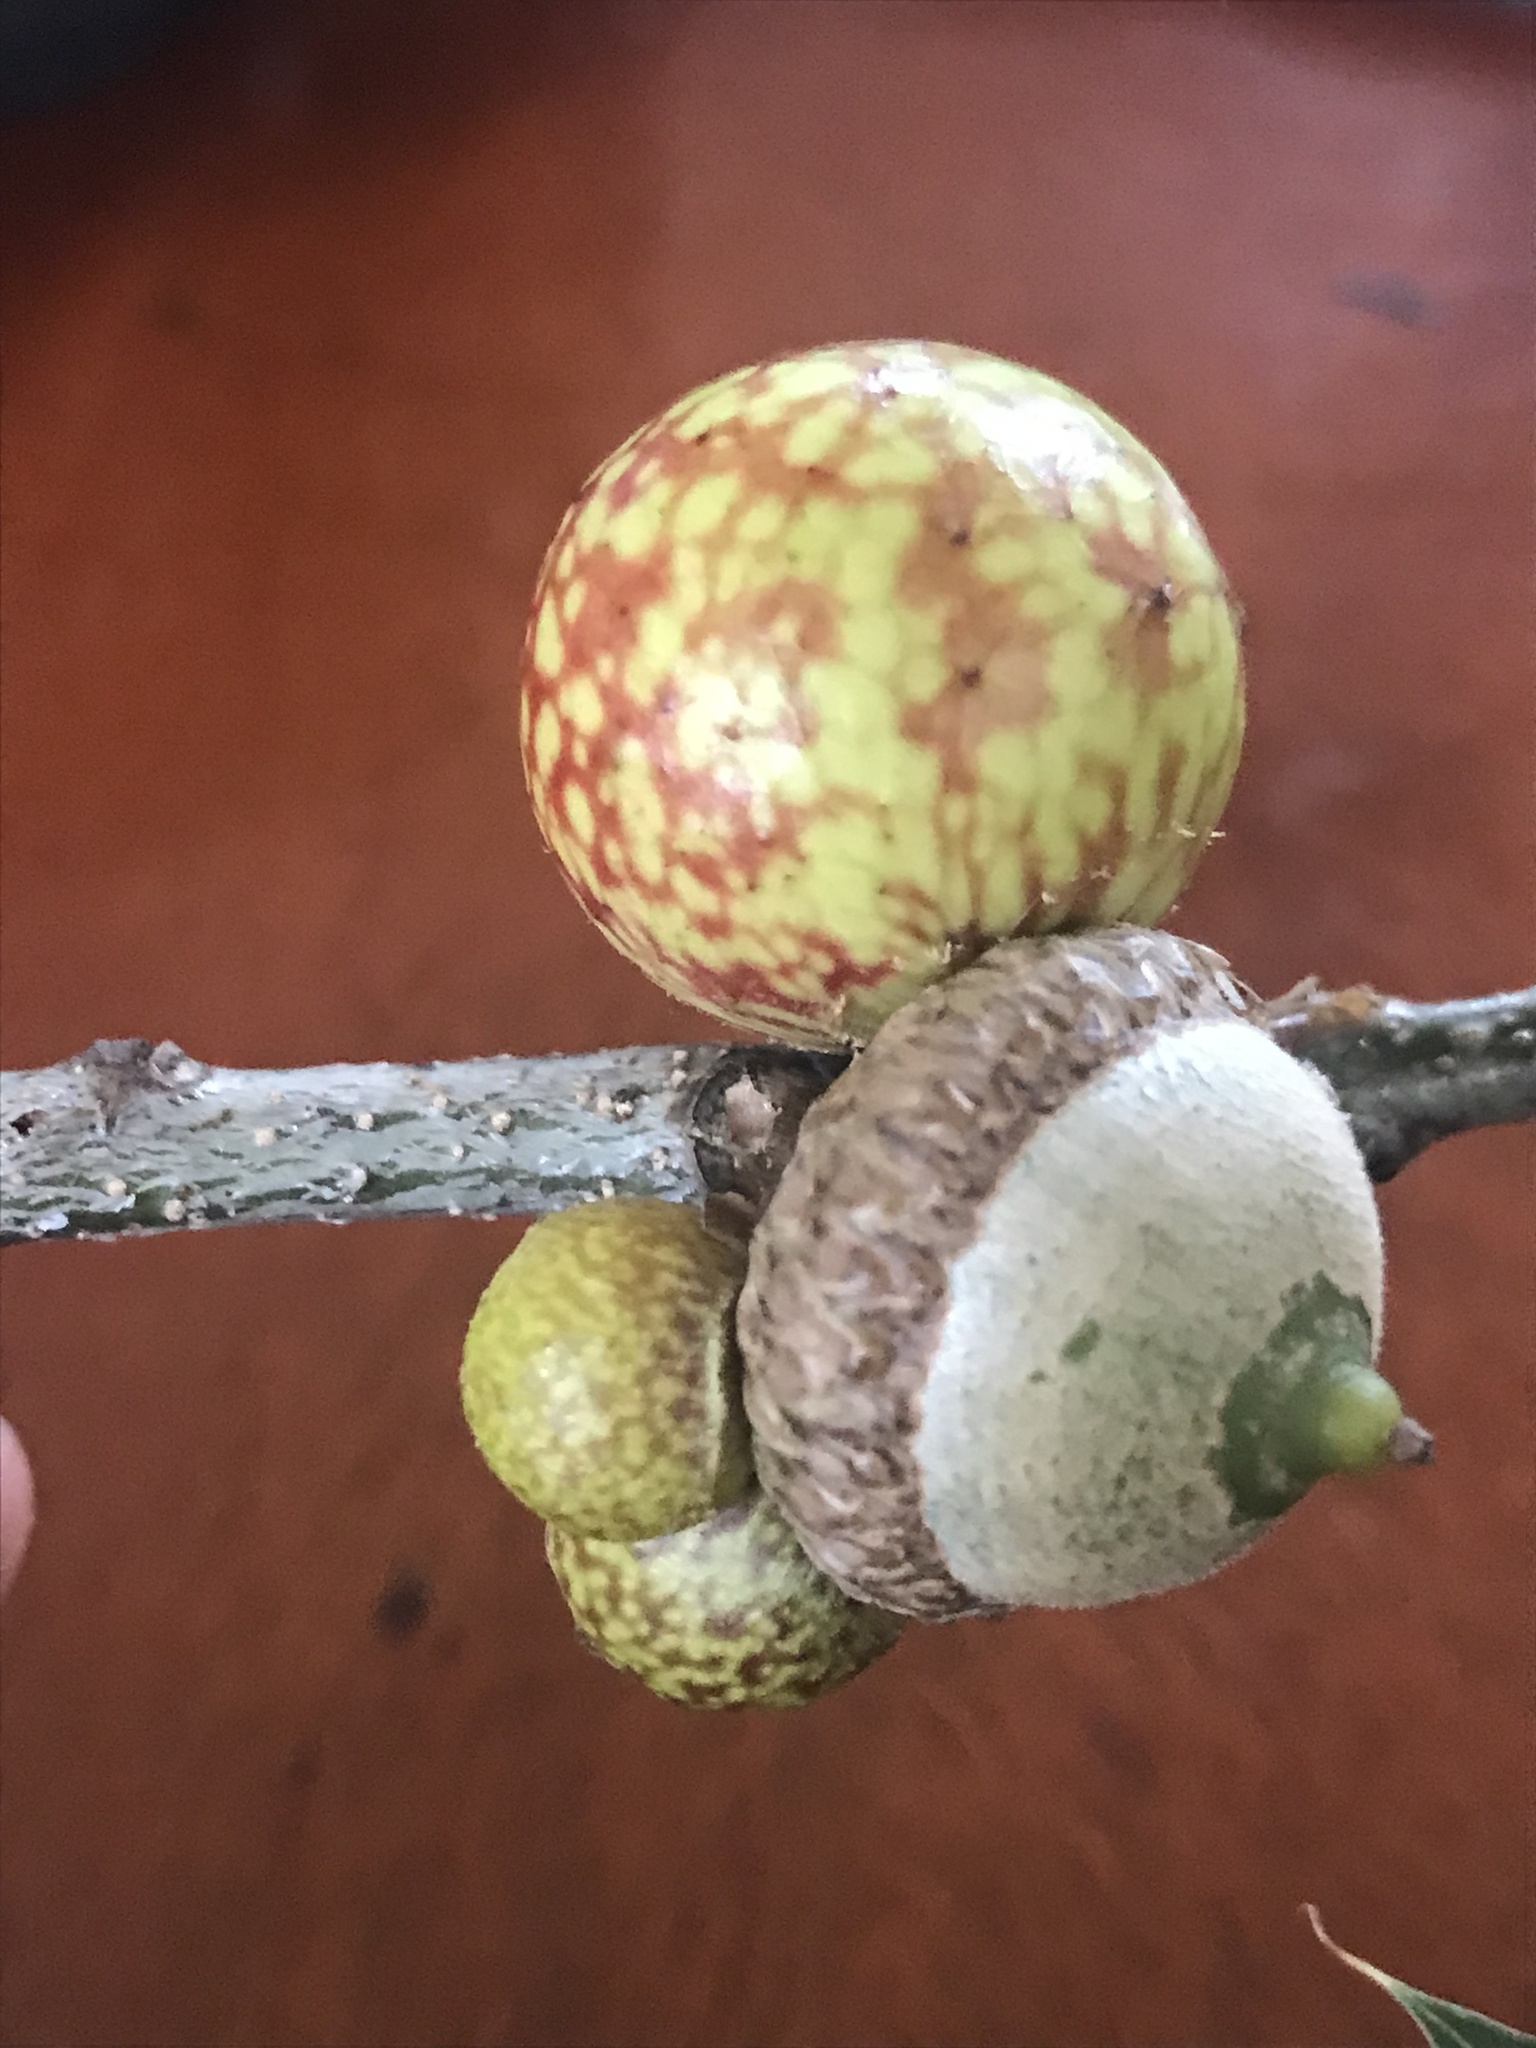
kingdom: Animalia
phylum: Arthropoda
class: Insecta
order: Hymenoptera
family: Cynipidae
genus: Amphibolips
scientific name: Amphibolips
